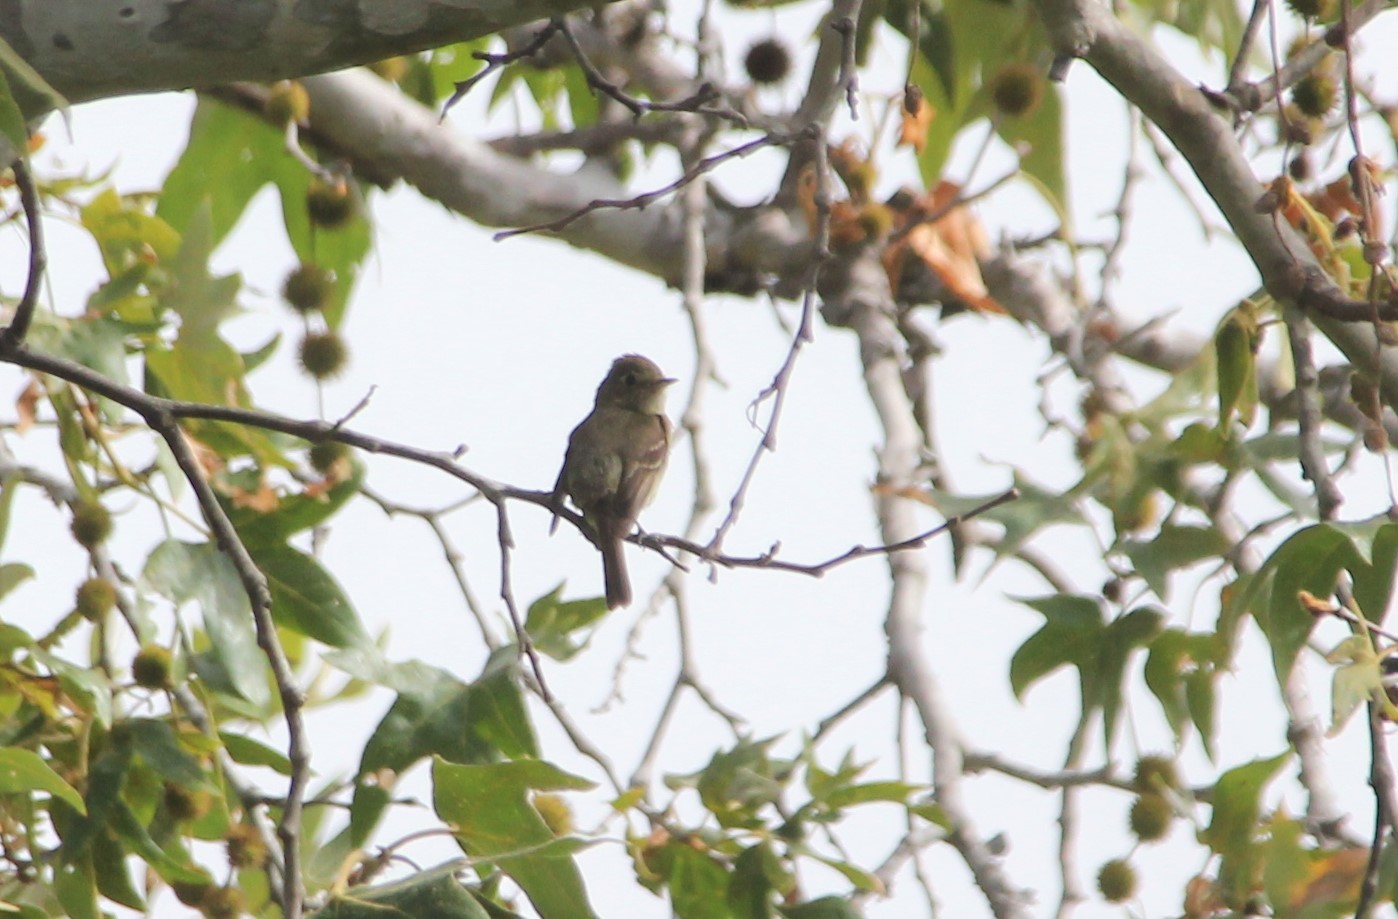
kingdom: Animalia
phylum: Chordata
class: Aves
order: Passeriformes
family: Tyrannidae
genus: Empidonax
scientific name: Empidonax difficilis
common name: Pacific-slope flycatcher
